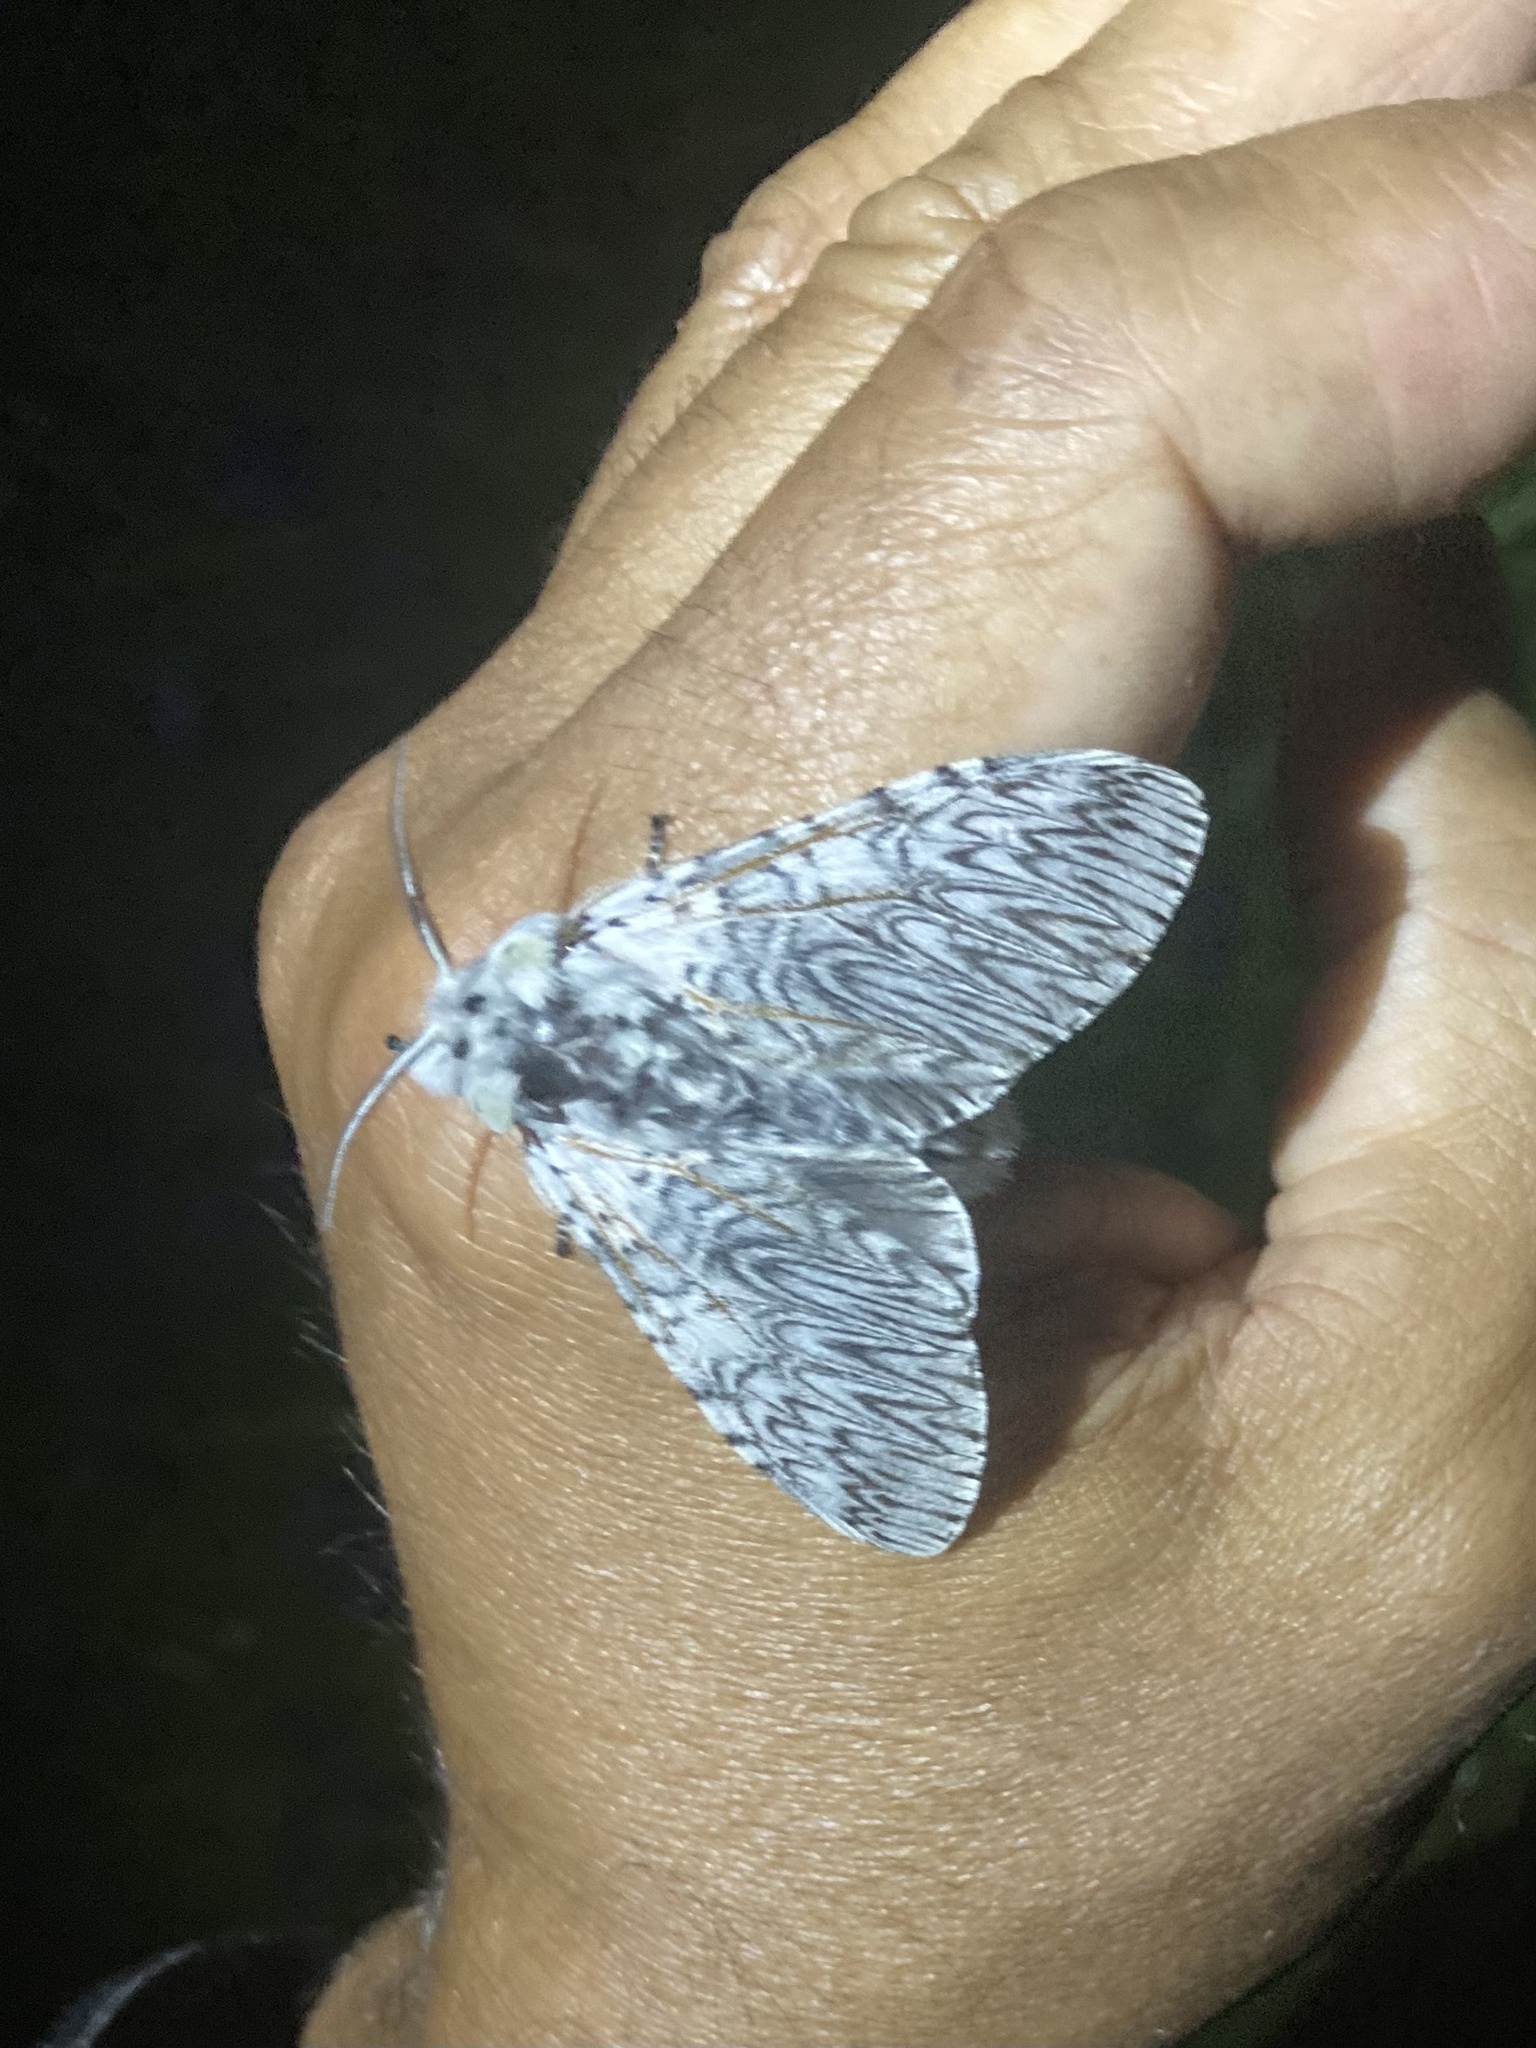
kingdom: Animalia
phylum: Arthropoda
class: Insecta
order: Lepidoptera
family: Notodontidae
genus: Cerura
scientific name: Cerura vinula
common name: Puss moth
